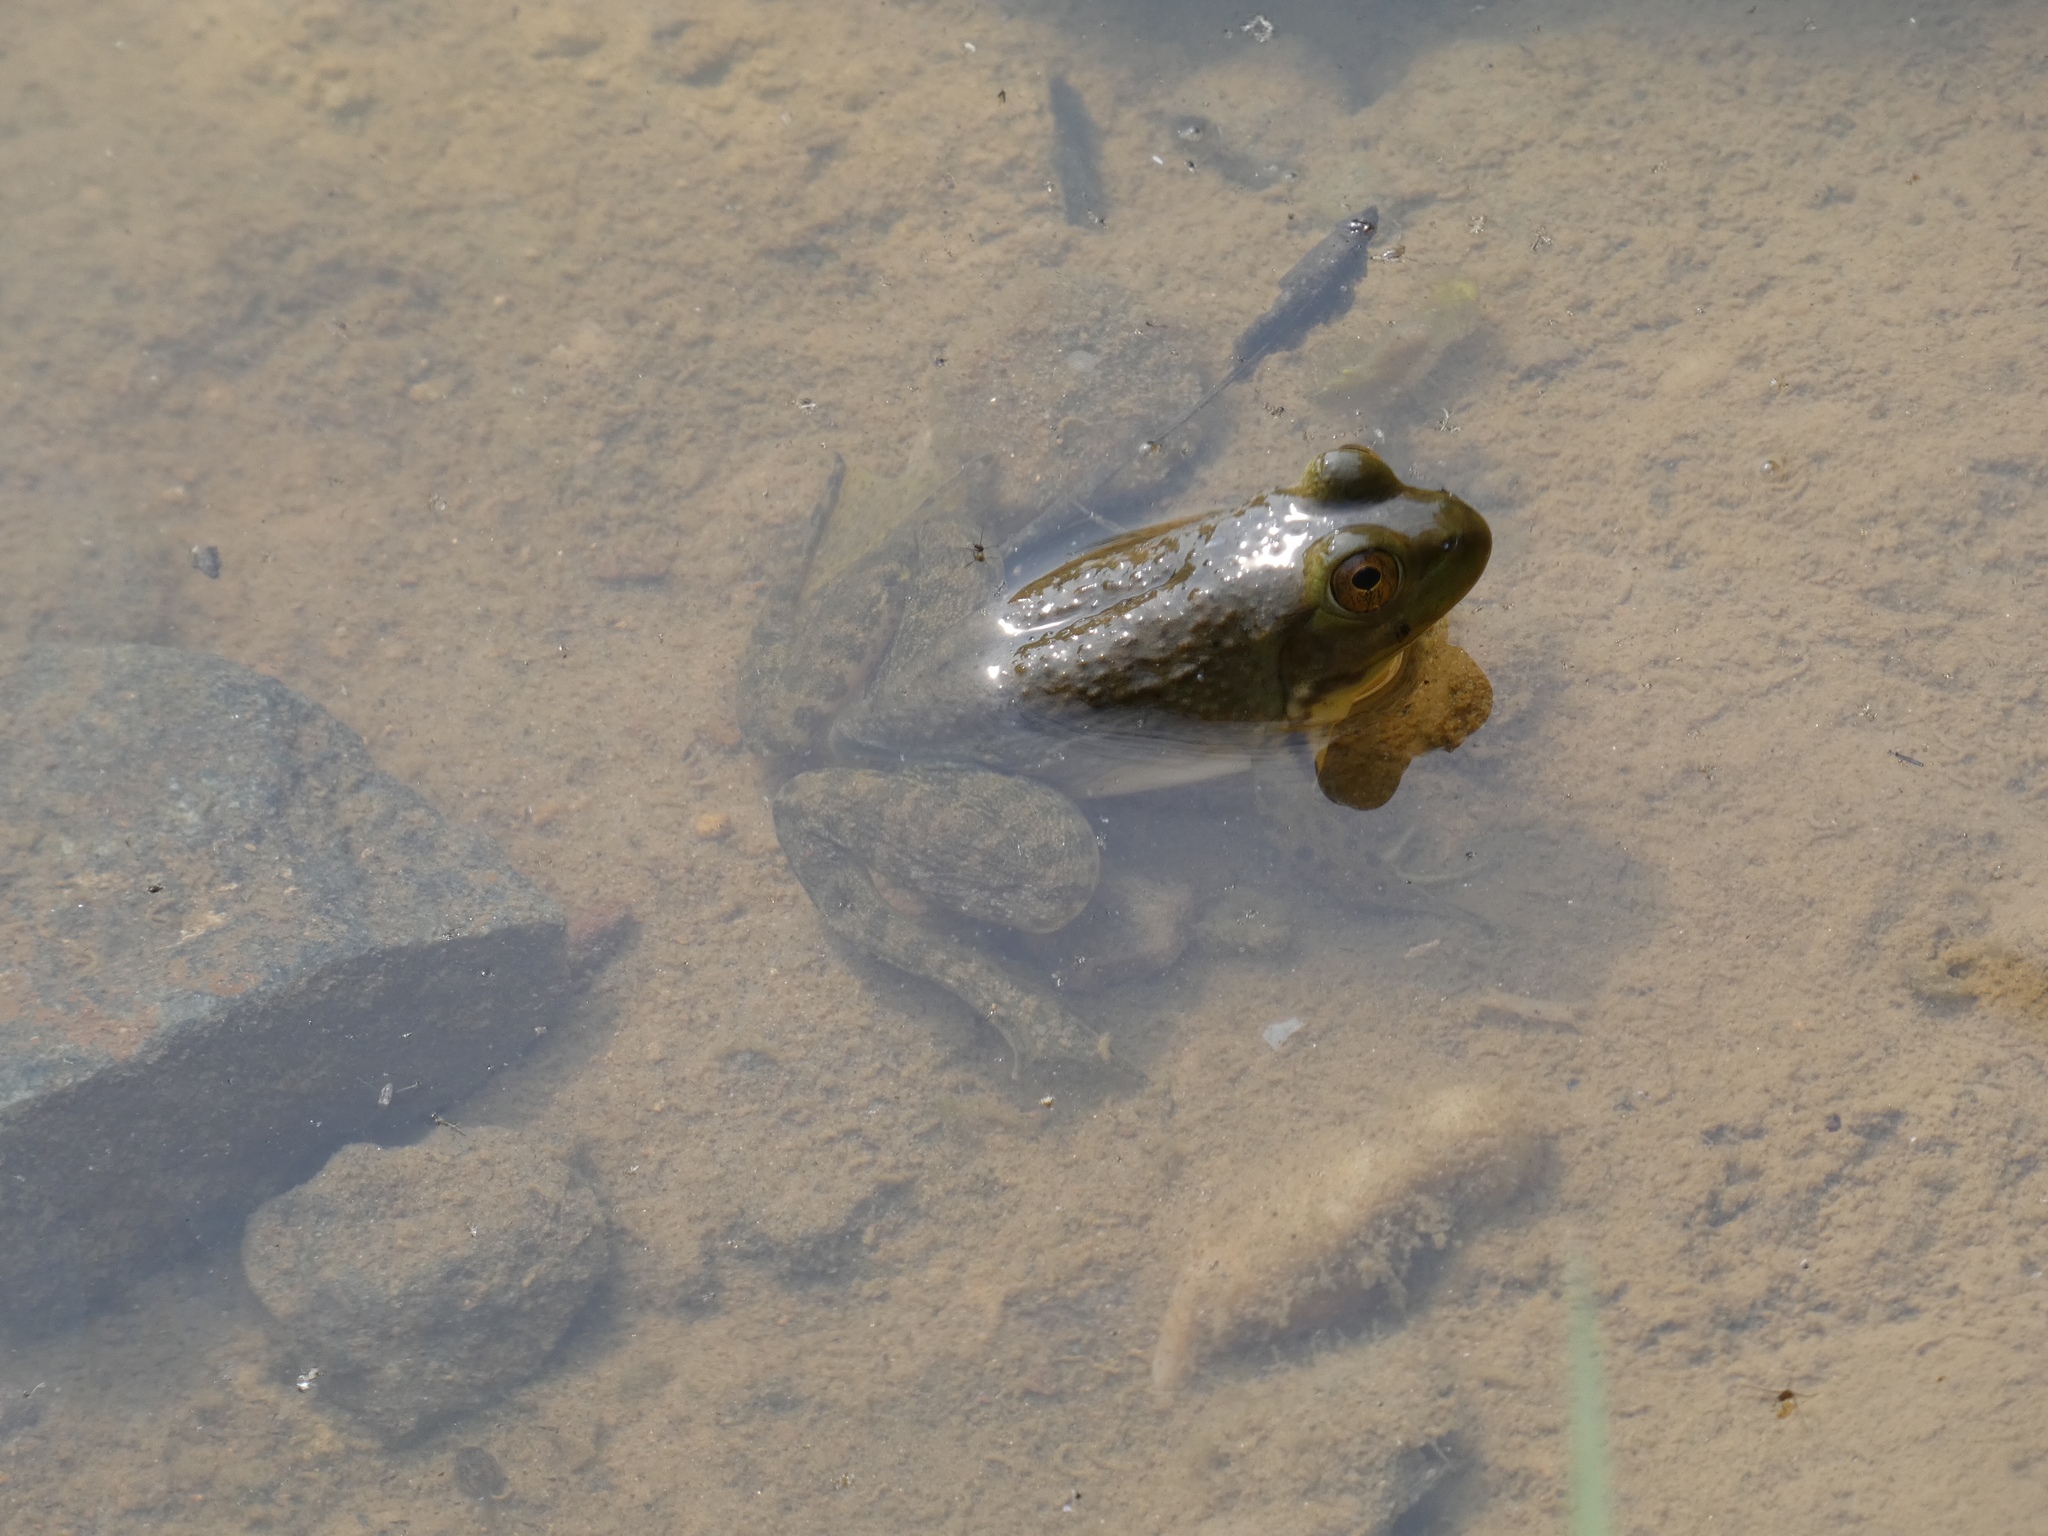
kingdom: Animalia
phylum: Chordata
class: Amphibia
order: Anura
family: Ranidae
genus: Lithobates
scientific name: Lithobates catesbeianus
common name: American bullfrog
